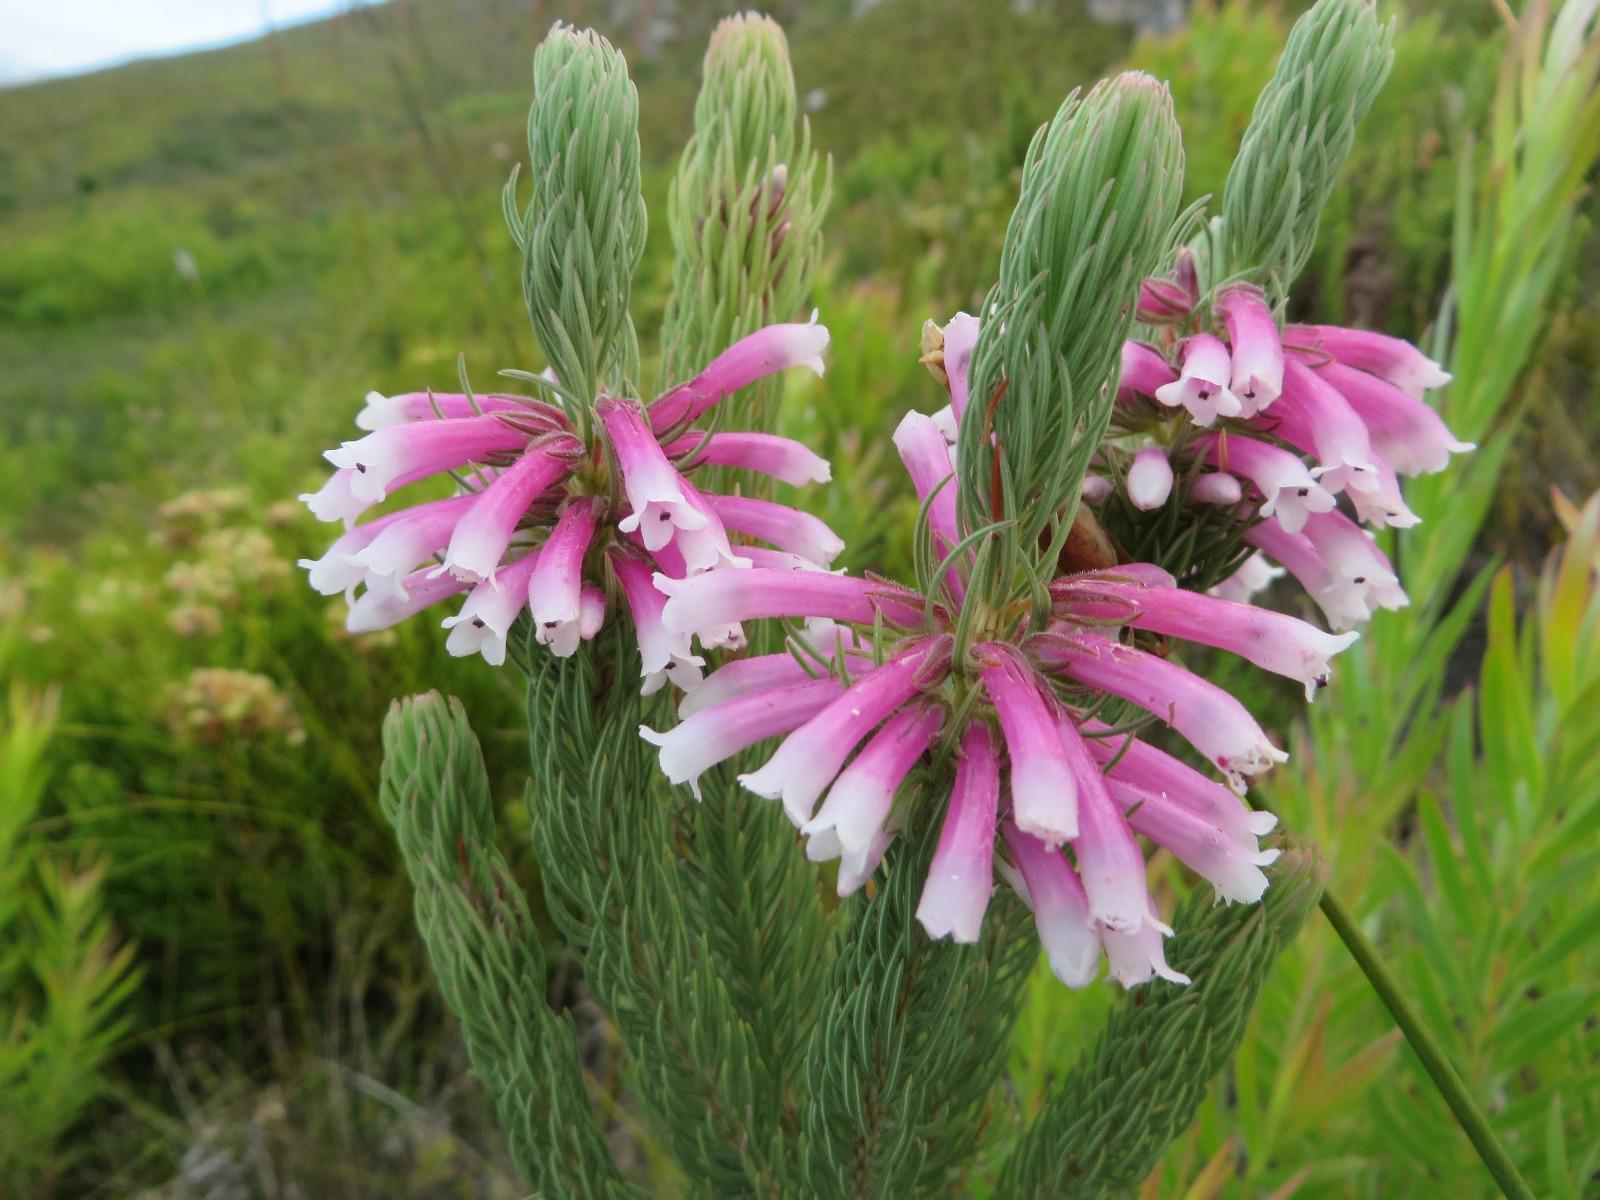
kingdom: Plantae
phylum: Tracheophyta
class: Magnoliopsida
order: Ericales
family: Ericaceae
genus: Erica
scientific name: Erica viscaria
